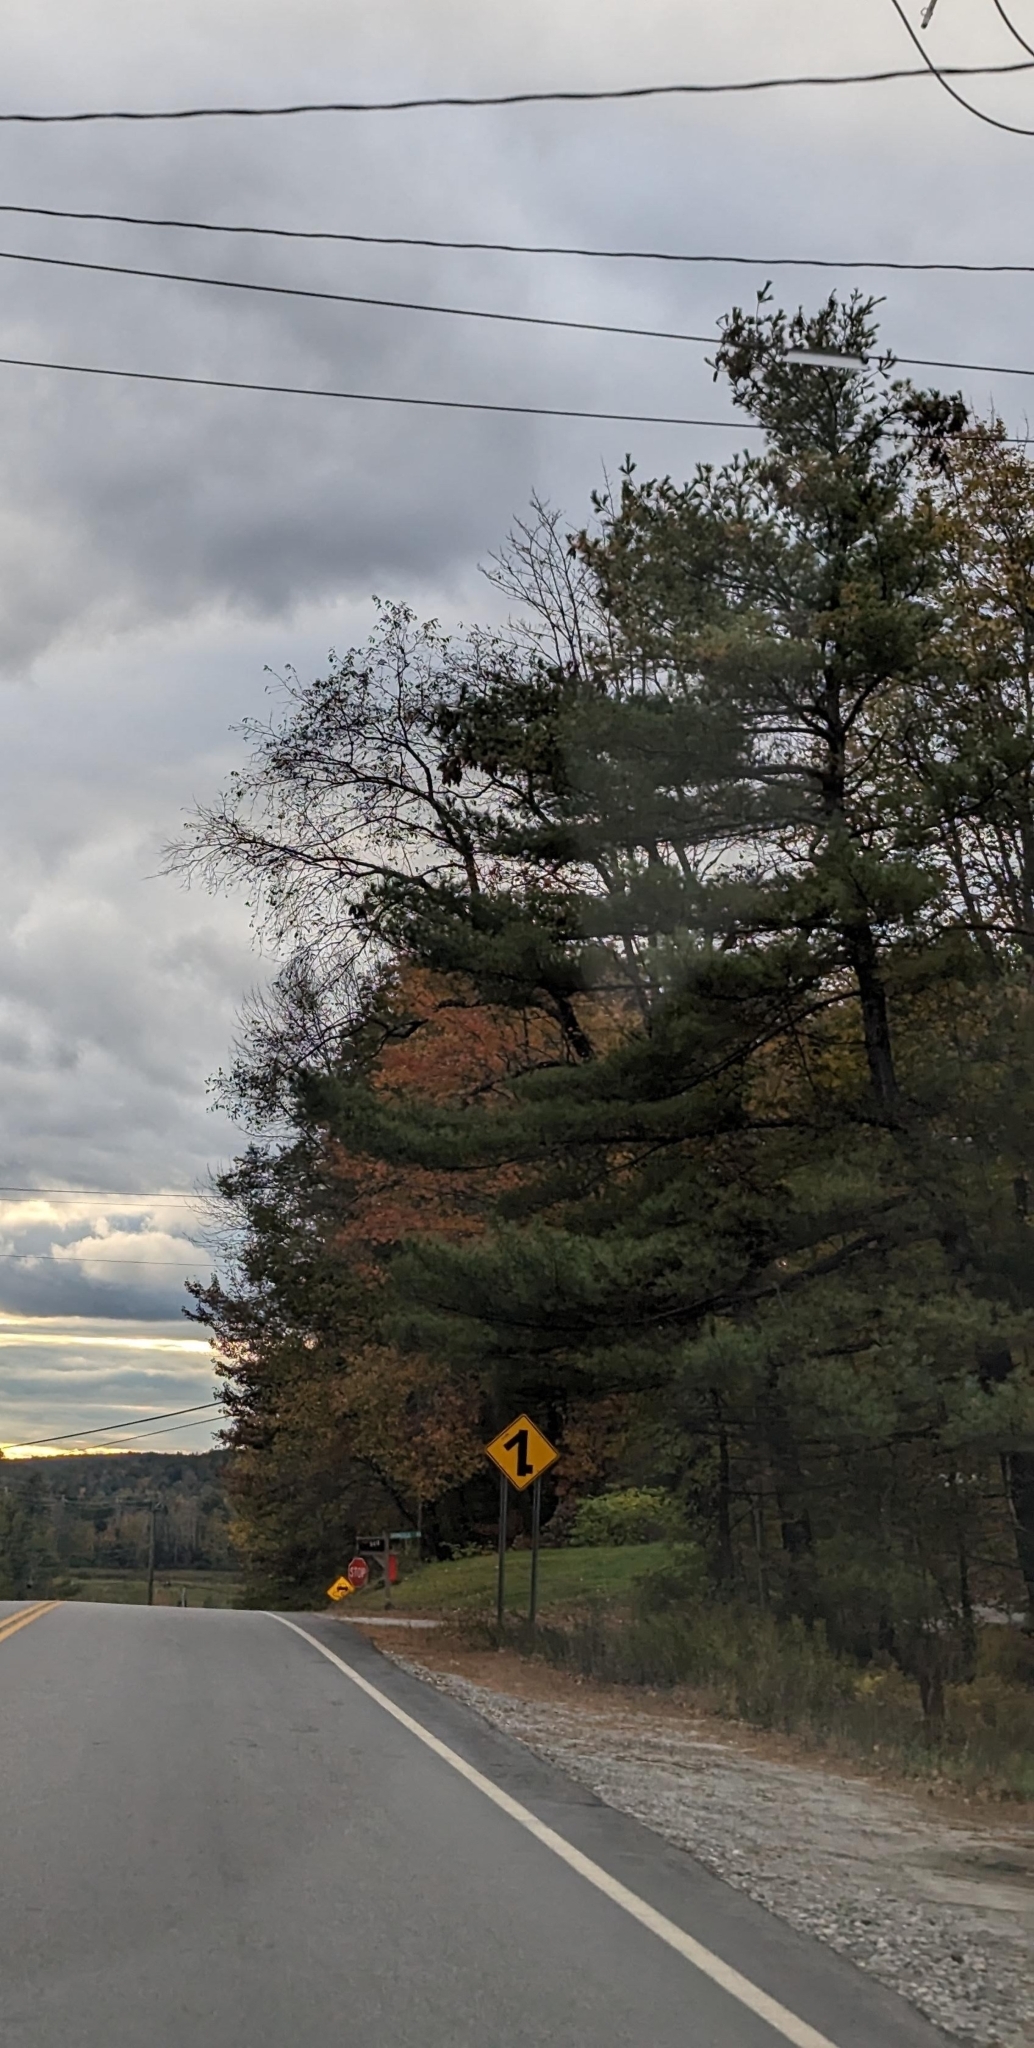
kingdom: Plantae
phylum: Tracheophyta
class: Pinopsida
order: Pinales
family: Pinaceae
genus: Pinus
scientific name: Pinus strobus
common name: Weymouth pine
